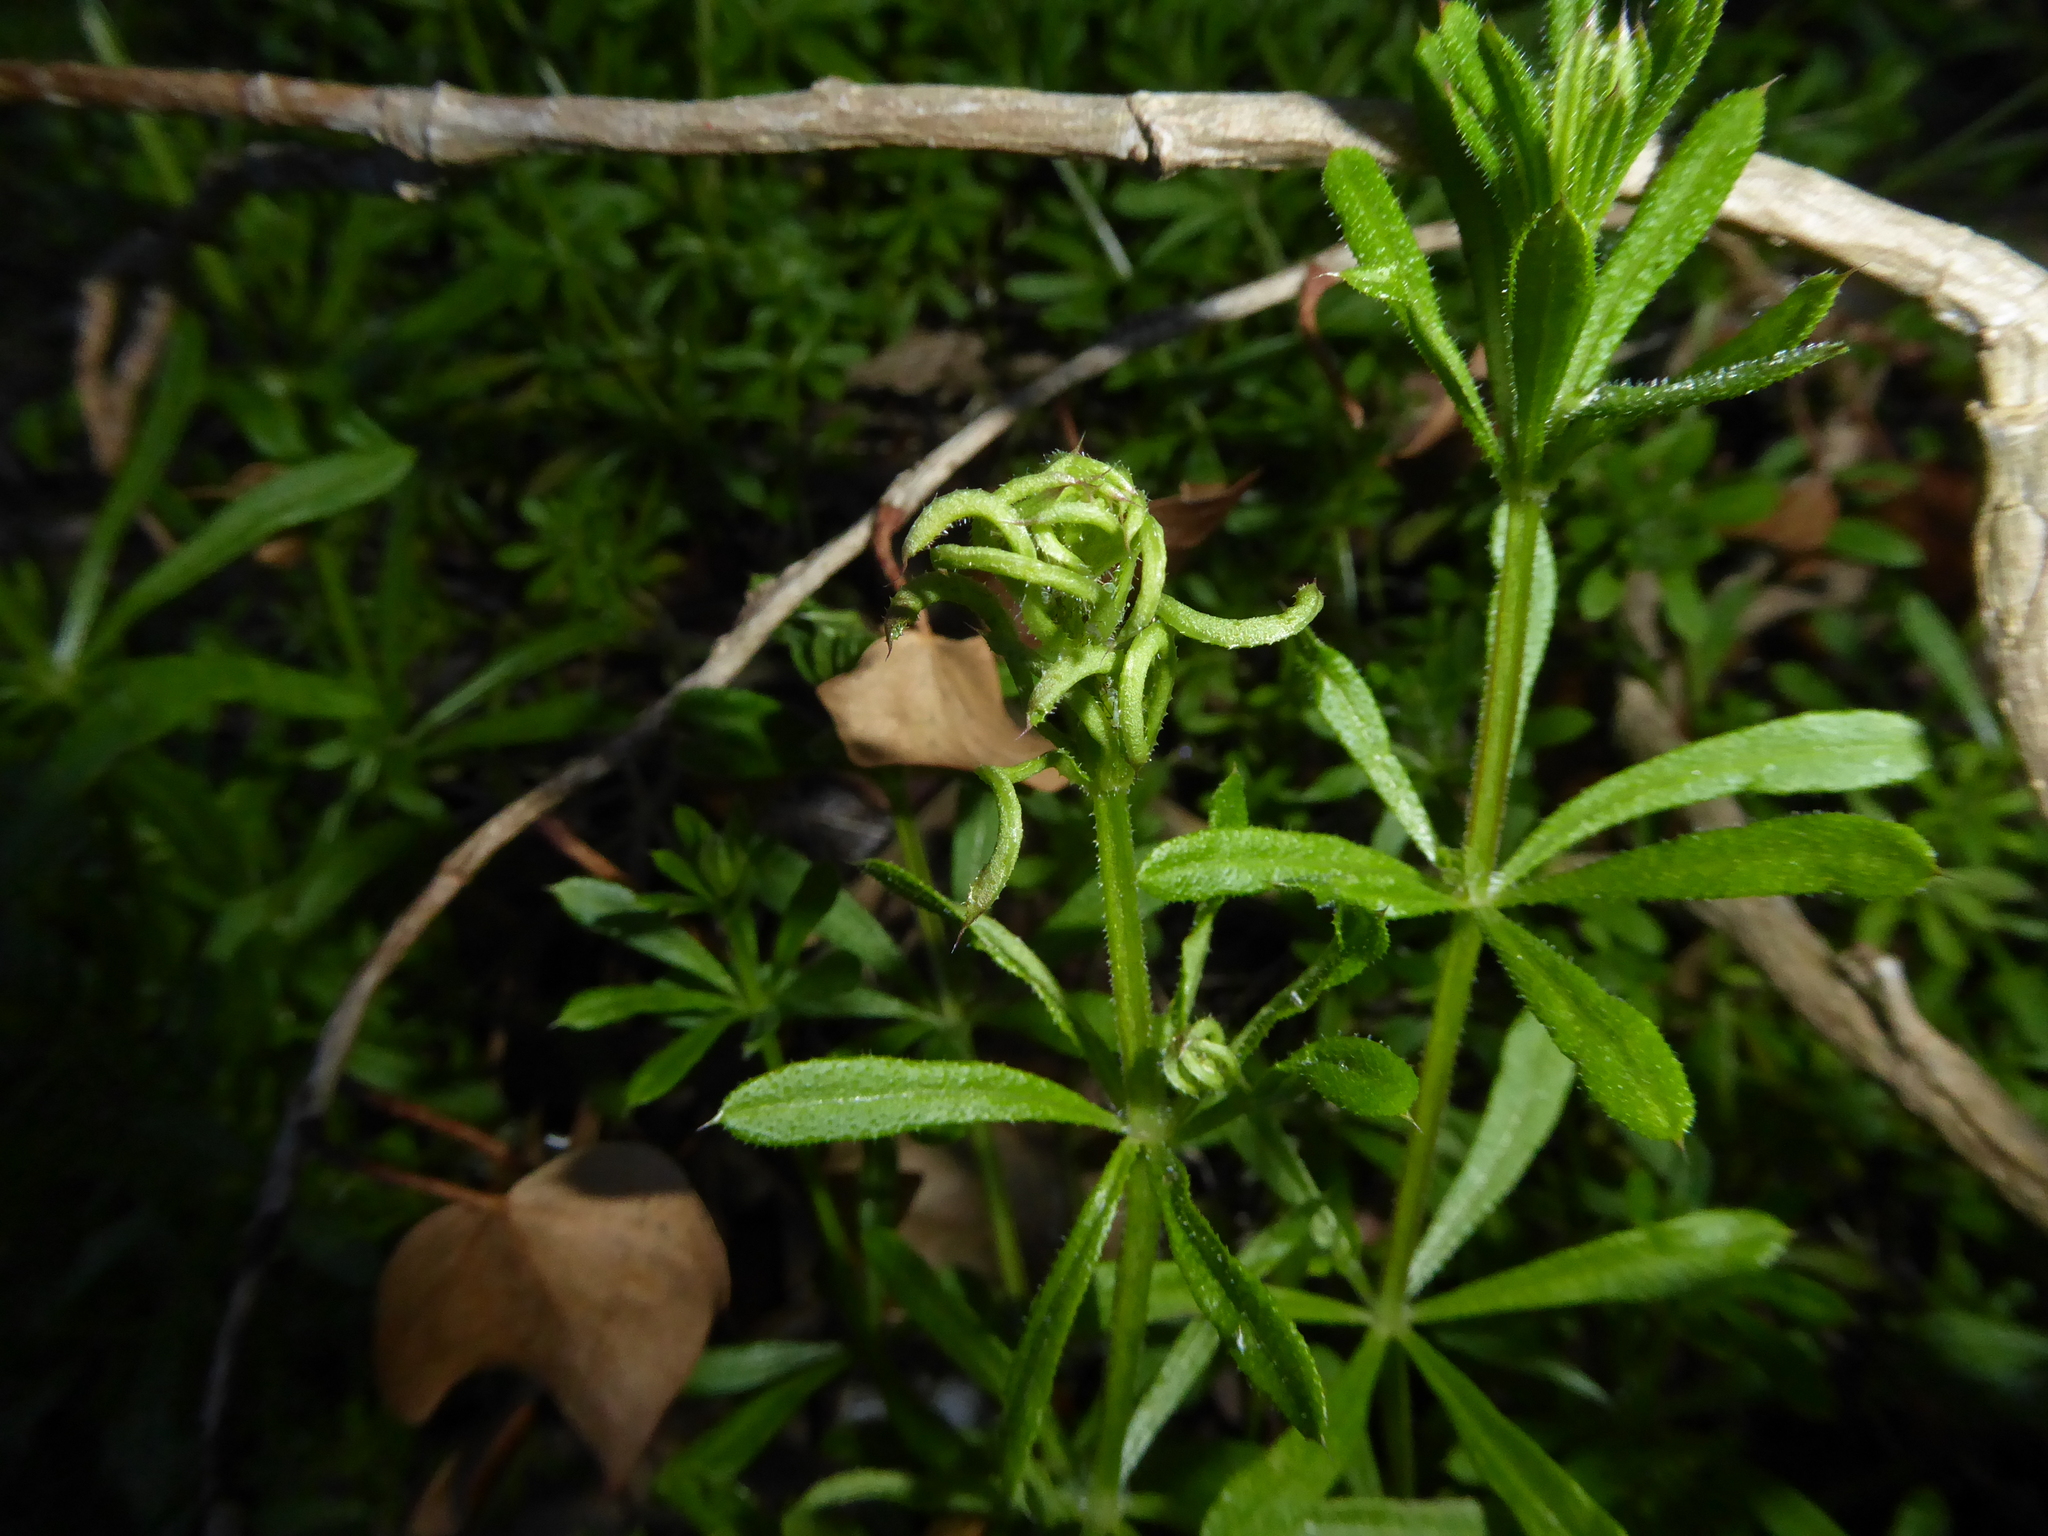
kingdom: Animalia
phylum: Arthropoda
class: Arachnida
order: Trombidiformes
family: Eriophyidae
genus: Cecidophyes
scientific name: Cecidophyes rouhollahi
